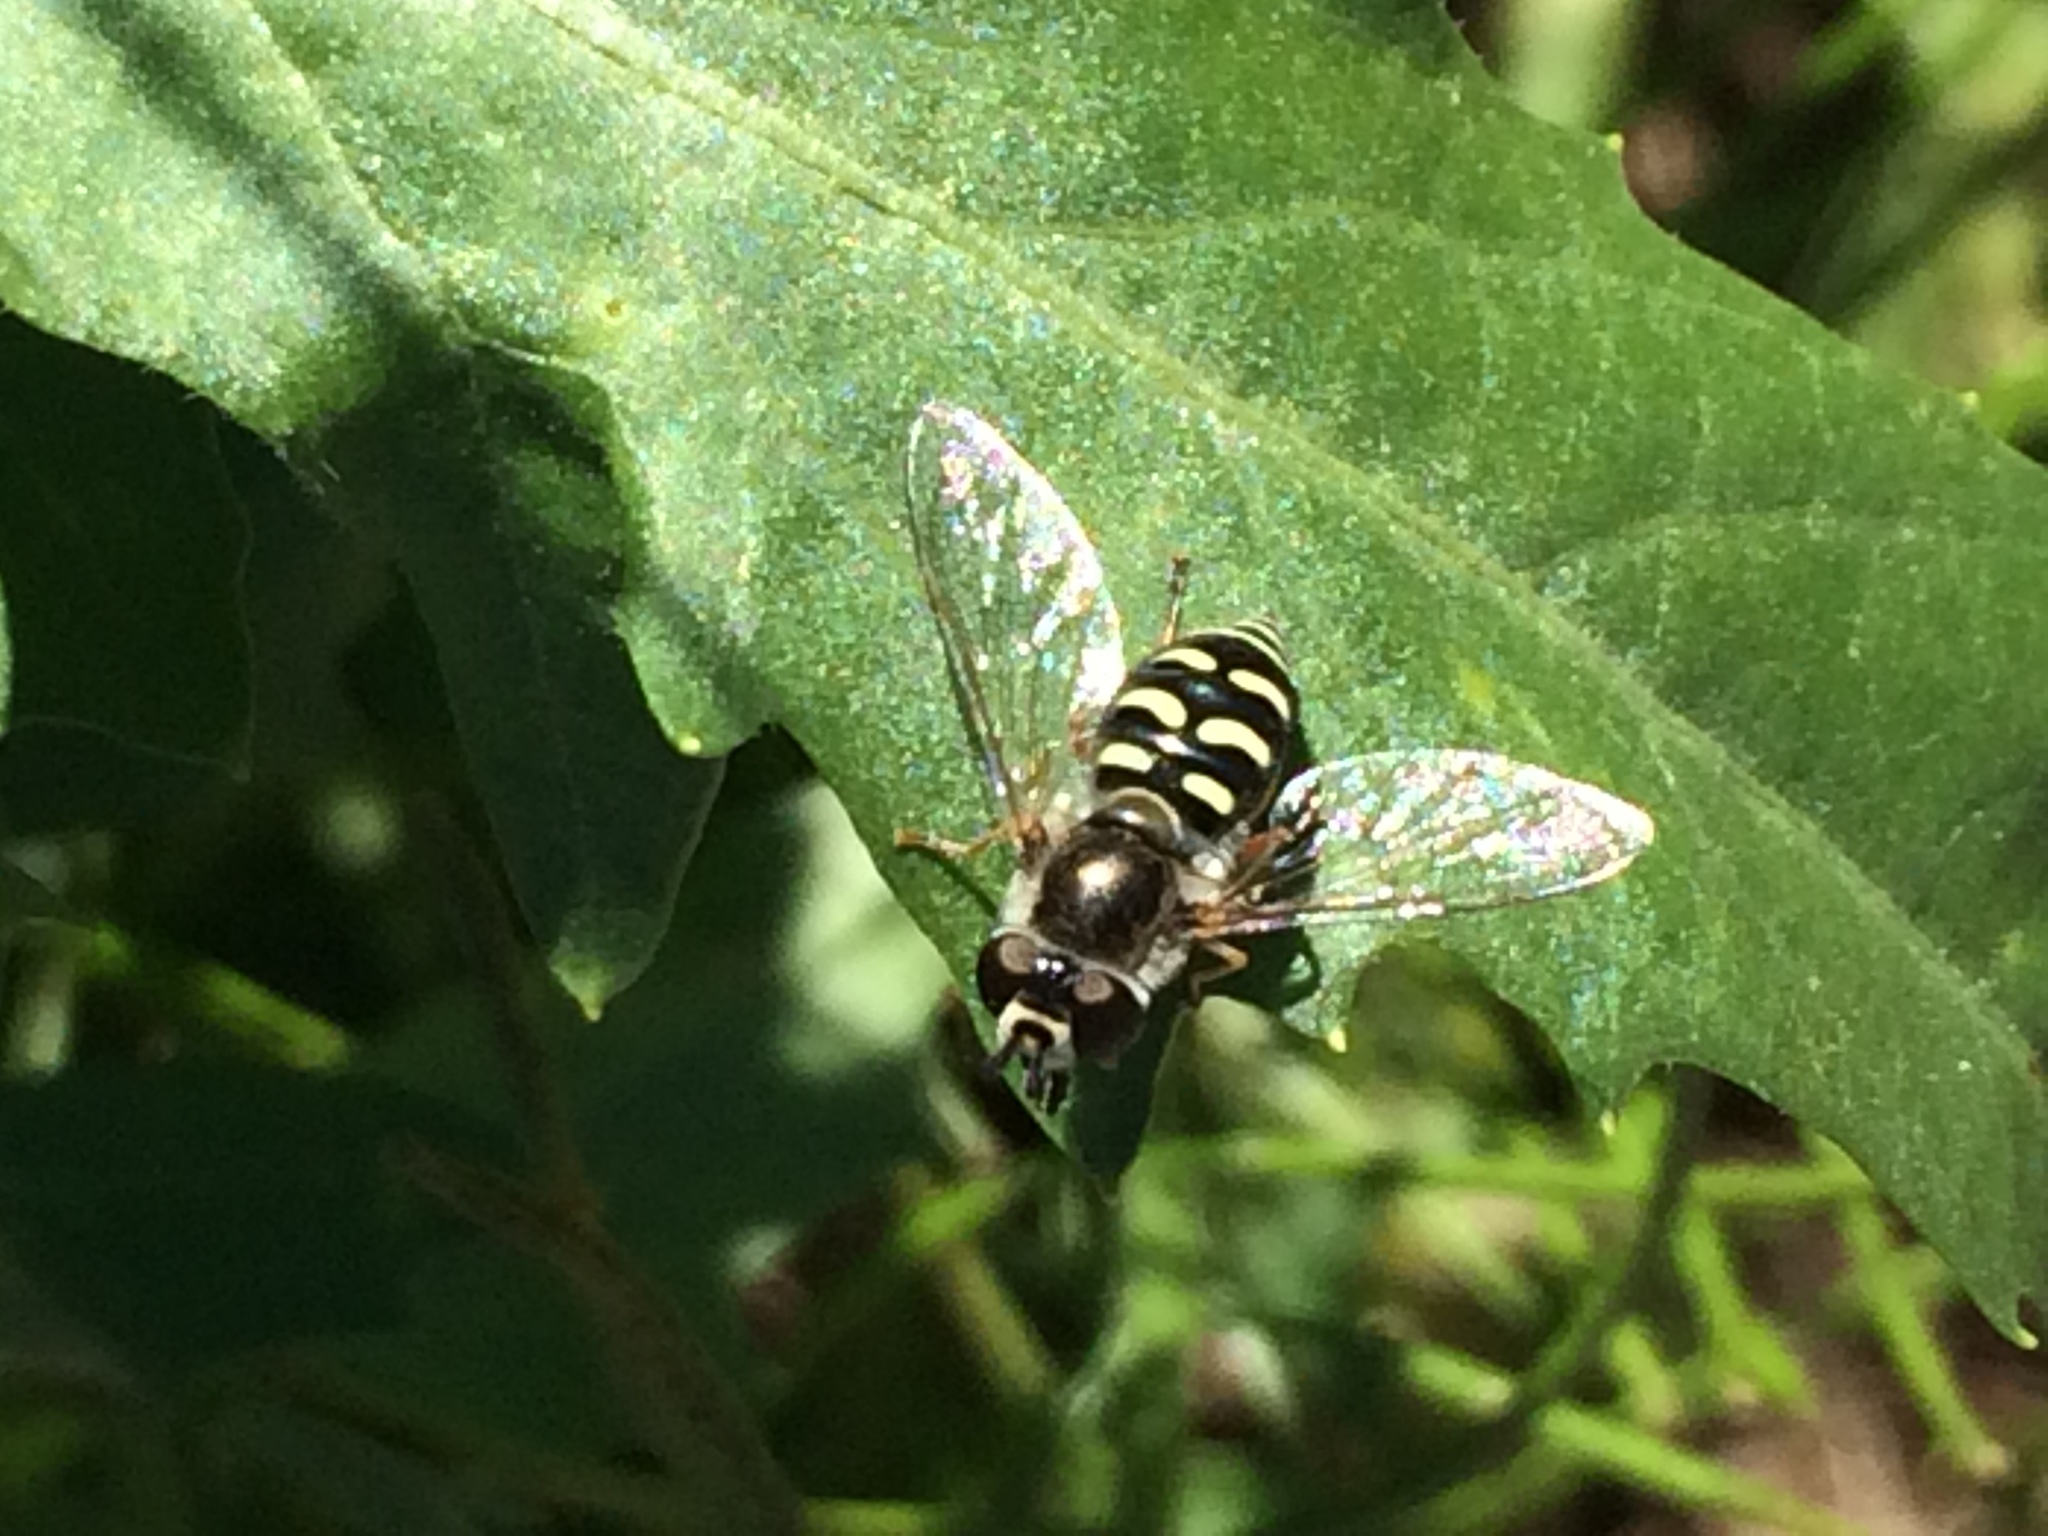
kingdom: Animalia
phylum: Arthropoda
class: Insecta
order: Diptera
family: Syrphidae
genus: Eupeodes
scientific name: Eupeodes volucris
